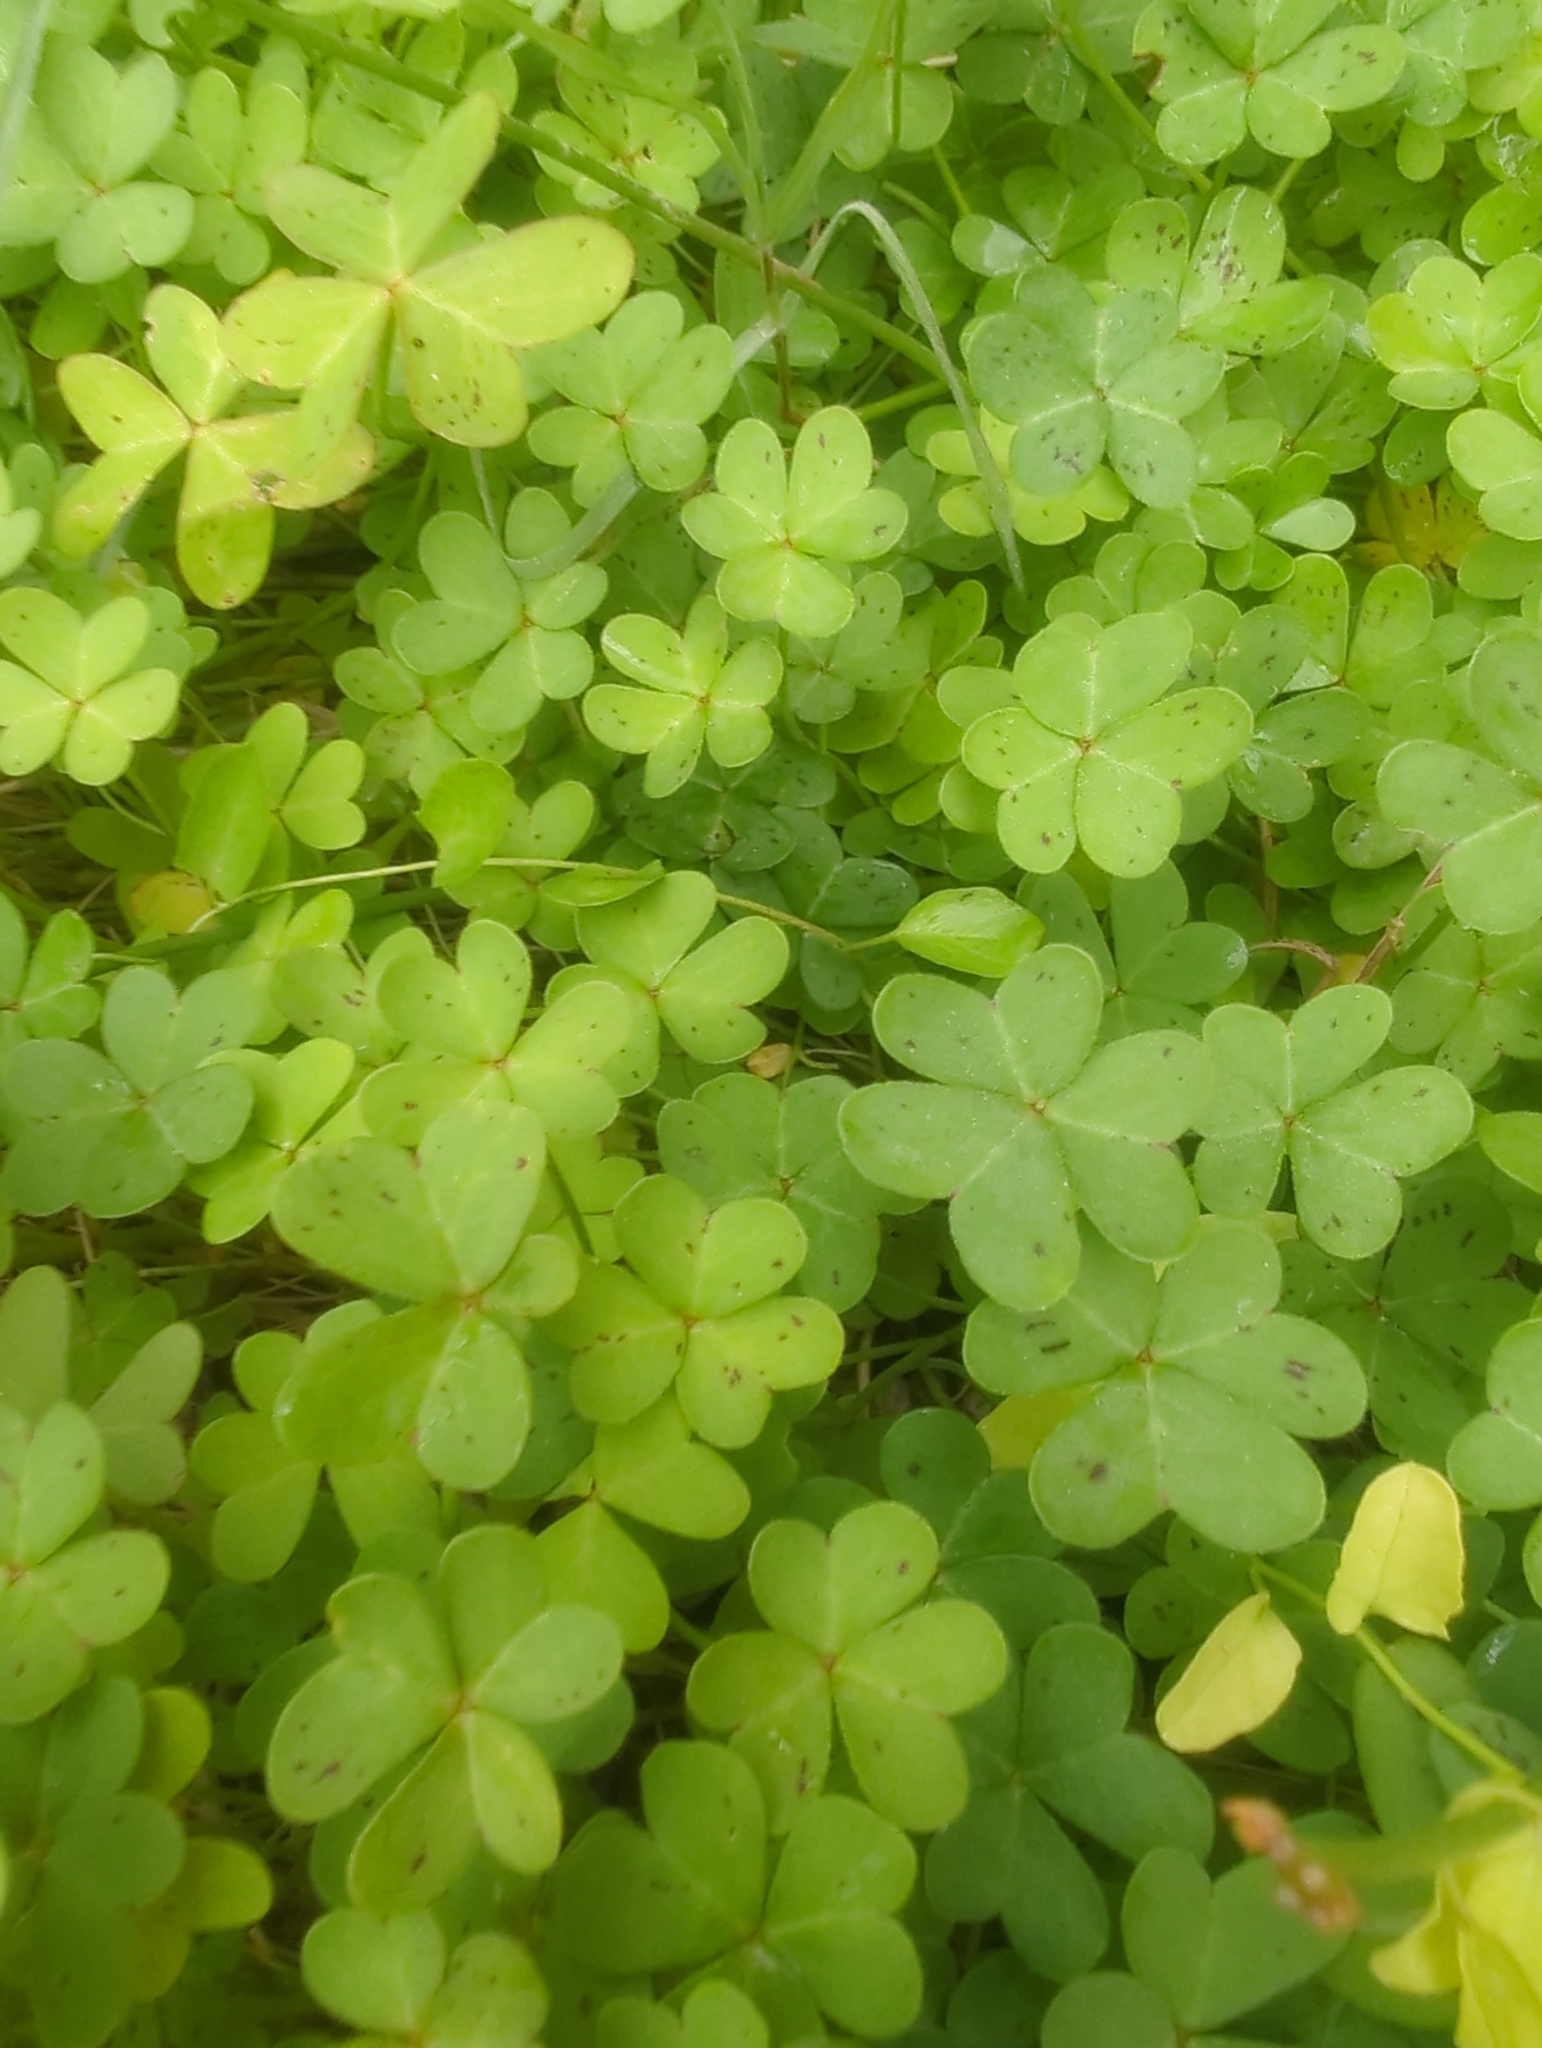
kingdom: Plantae
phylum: Tracheophyta
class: Magnoliopsida
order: Oxalidales
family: Oxalidaceae
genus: Oxalis
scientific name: Oxalis pes-caprae
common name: Bermuda-buttercup
